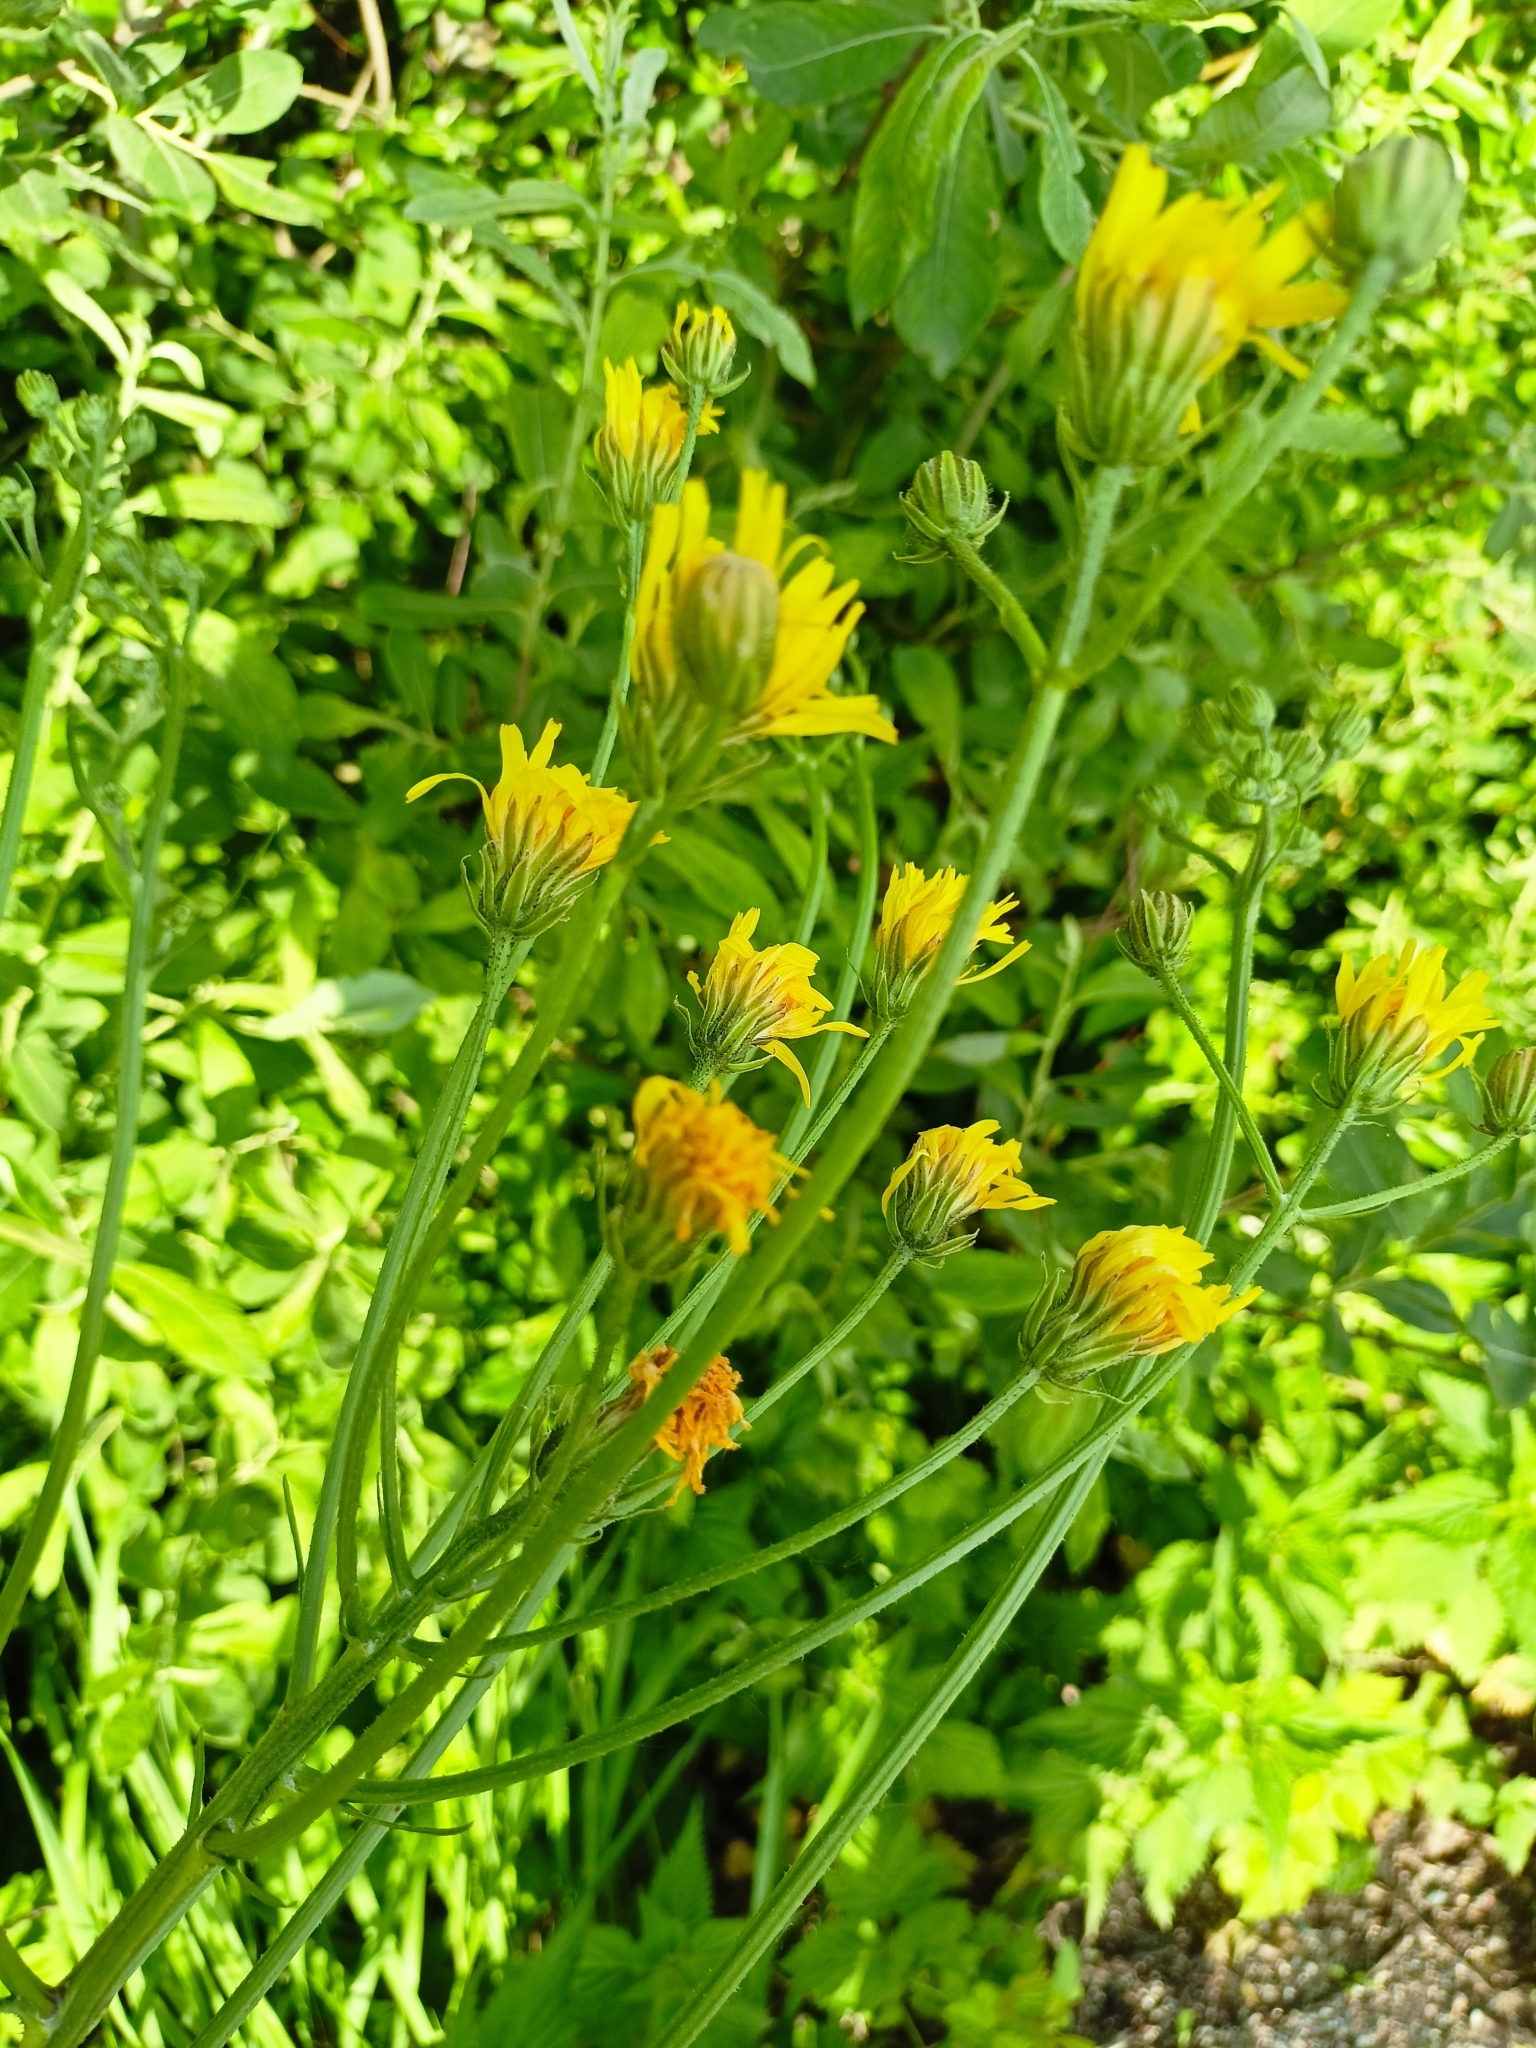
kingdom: Plantae
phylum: Tracheophyta
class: Magnoliopsida
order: Asterales
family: Asteraceae
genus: Crepis
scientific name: Crepis biennis
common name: Rough hawk's-beard
